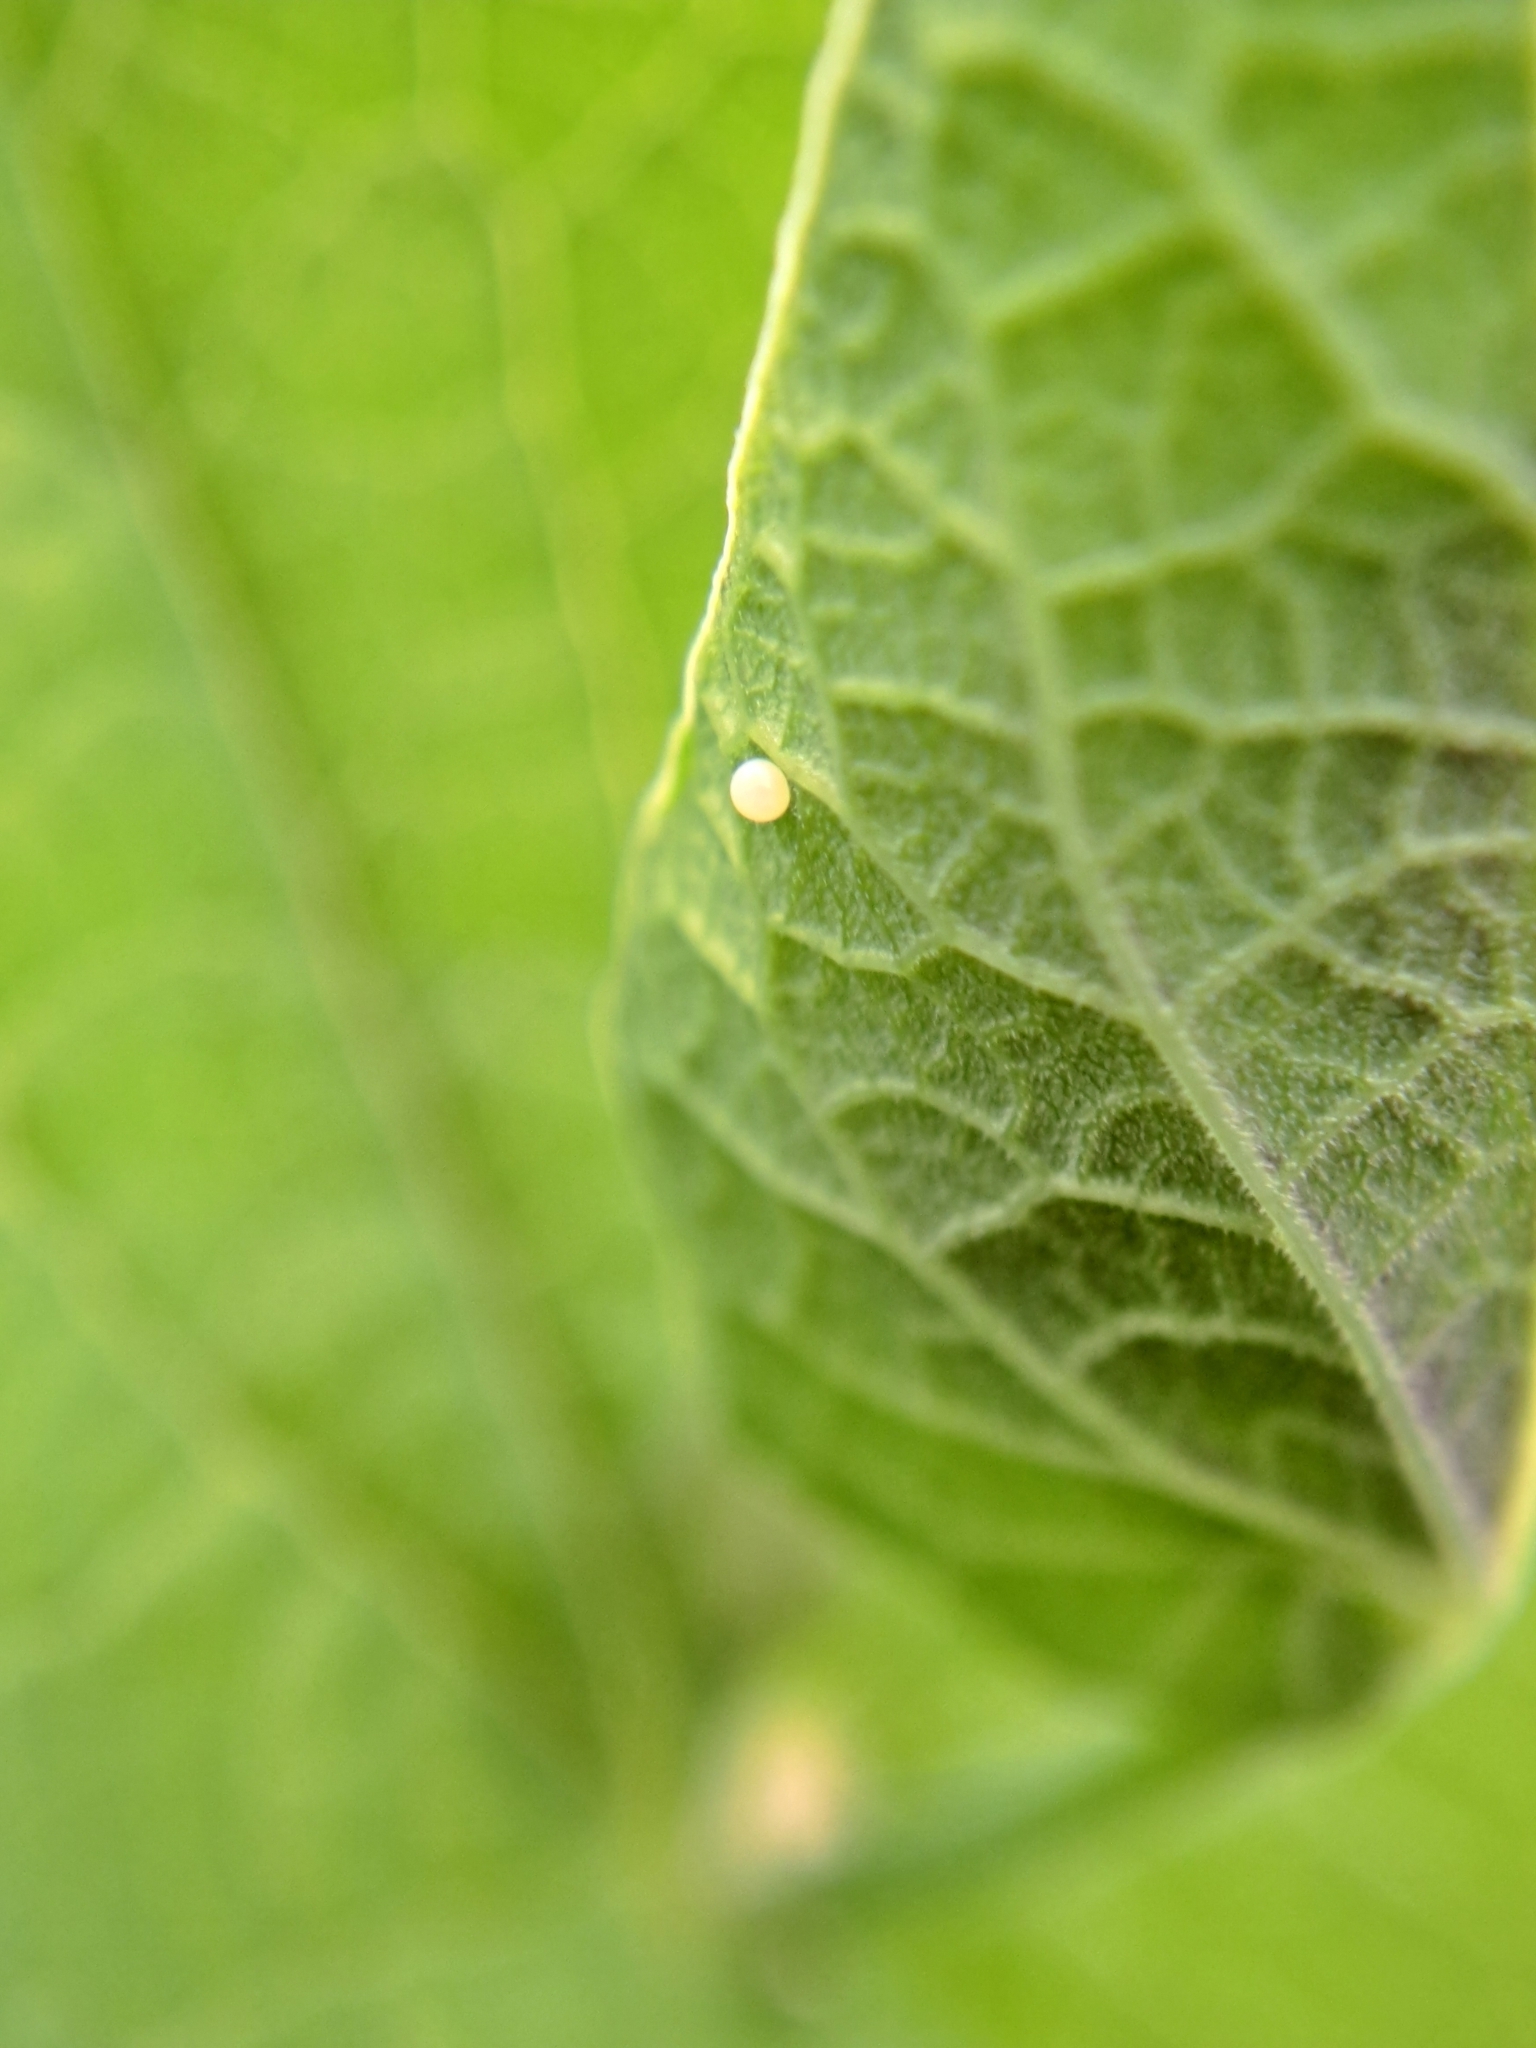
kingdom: Animalia
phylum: Arthropoda
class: Insecta
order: Lepidoptera
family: Papilionidae
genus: Zerynthia
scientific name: Zerynthia cassandra
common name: Italian festoon
